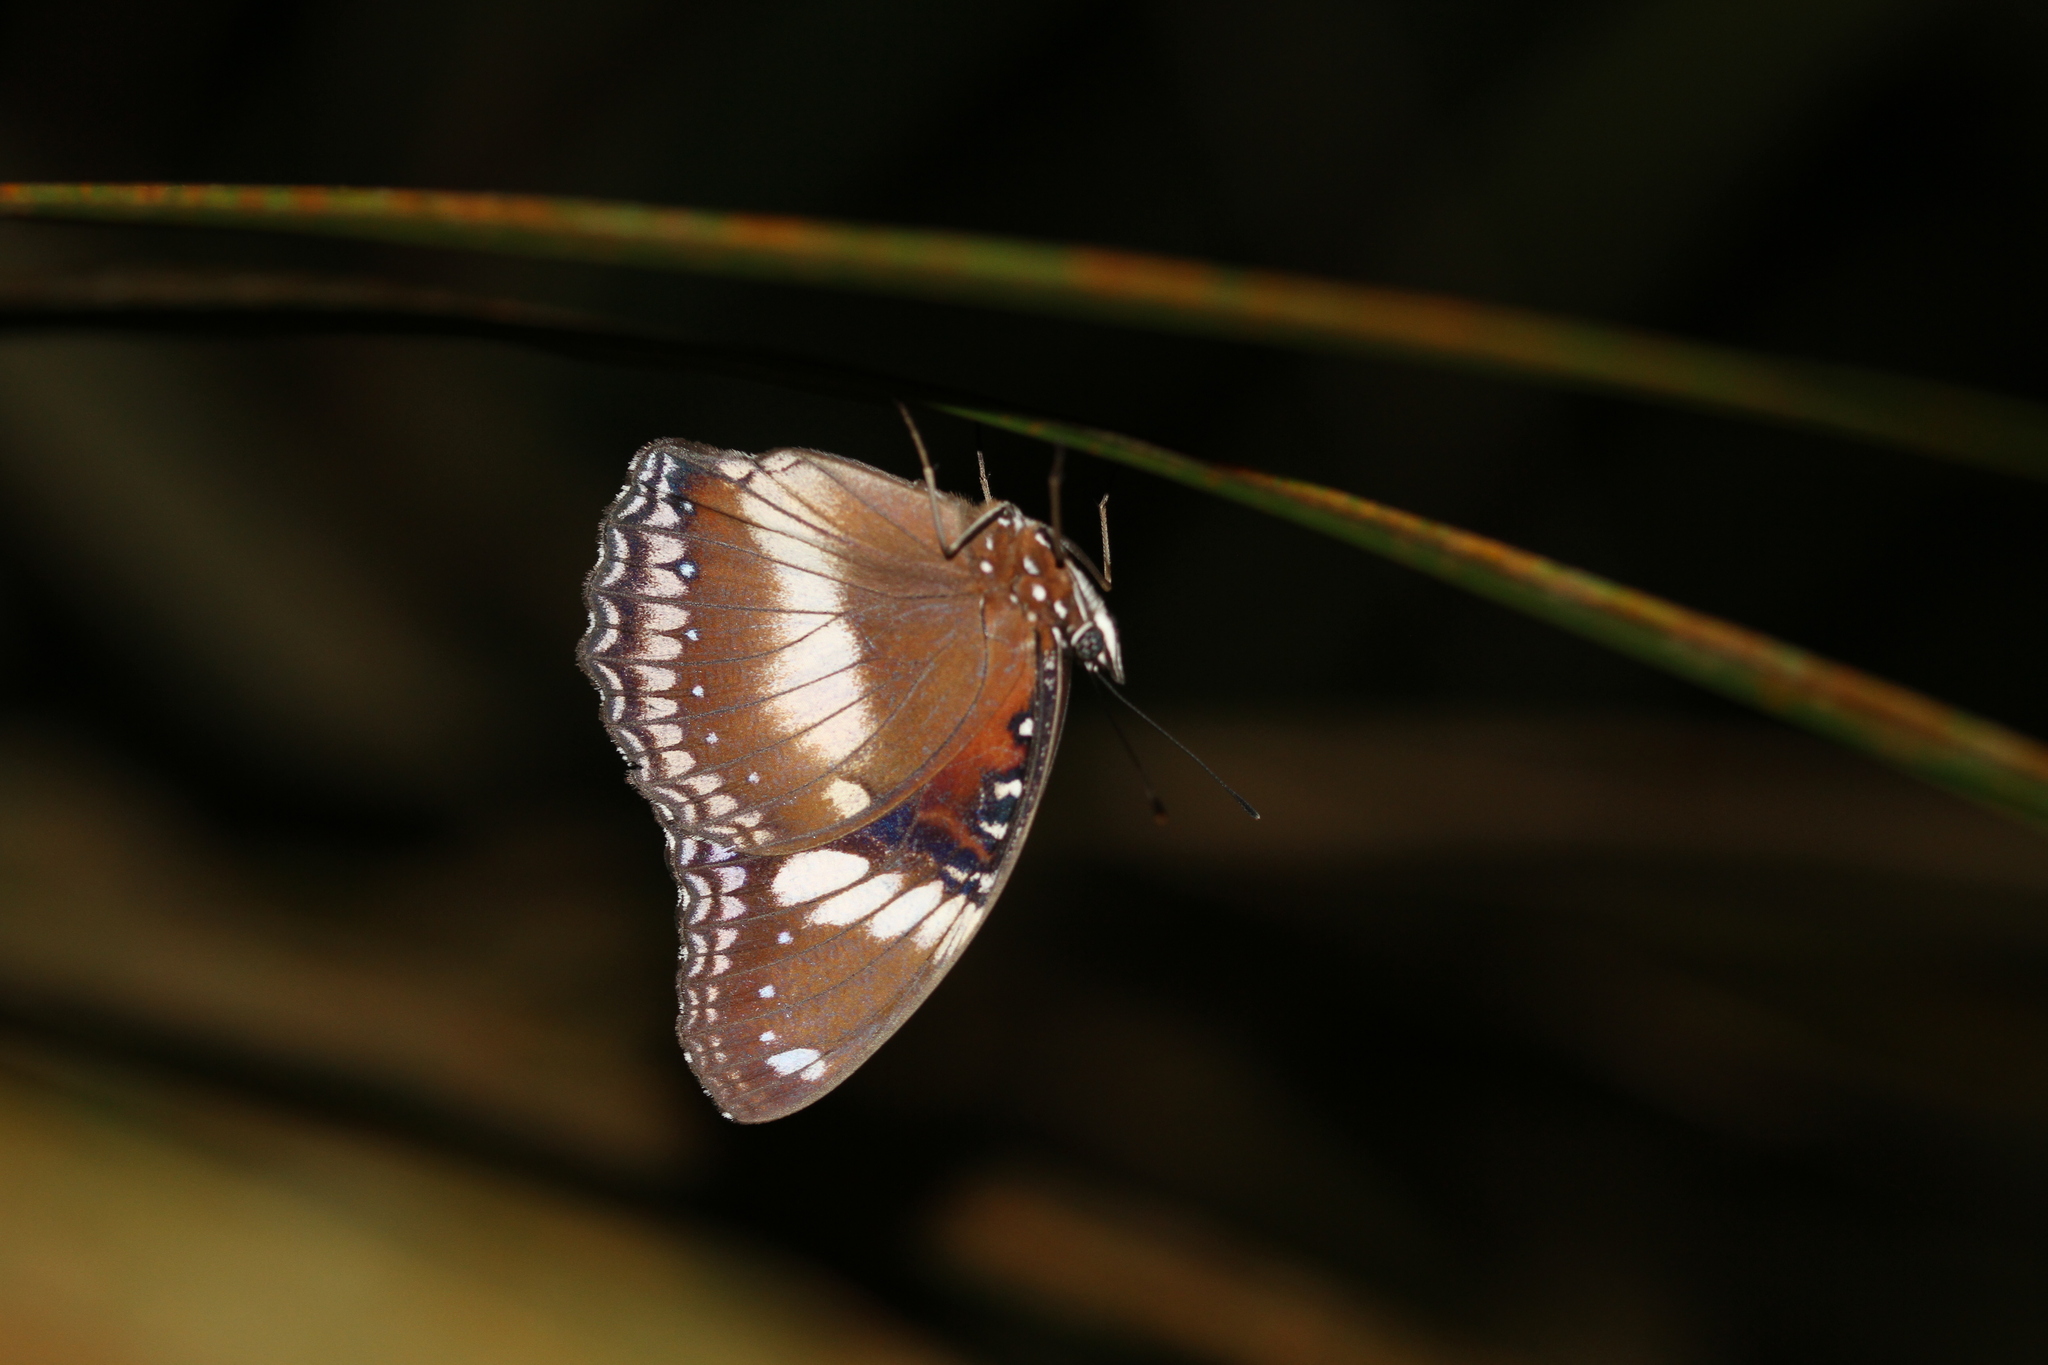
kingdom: Animalia
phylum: Arthropoda
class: Insecta
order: Lepidoptera
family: Nymphalidae
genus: Hypolimnas
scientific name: Hypolimnas bolina
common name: Great eggfly
